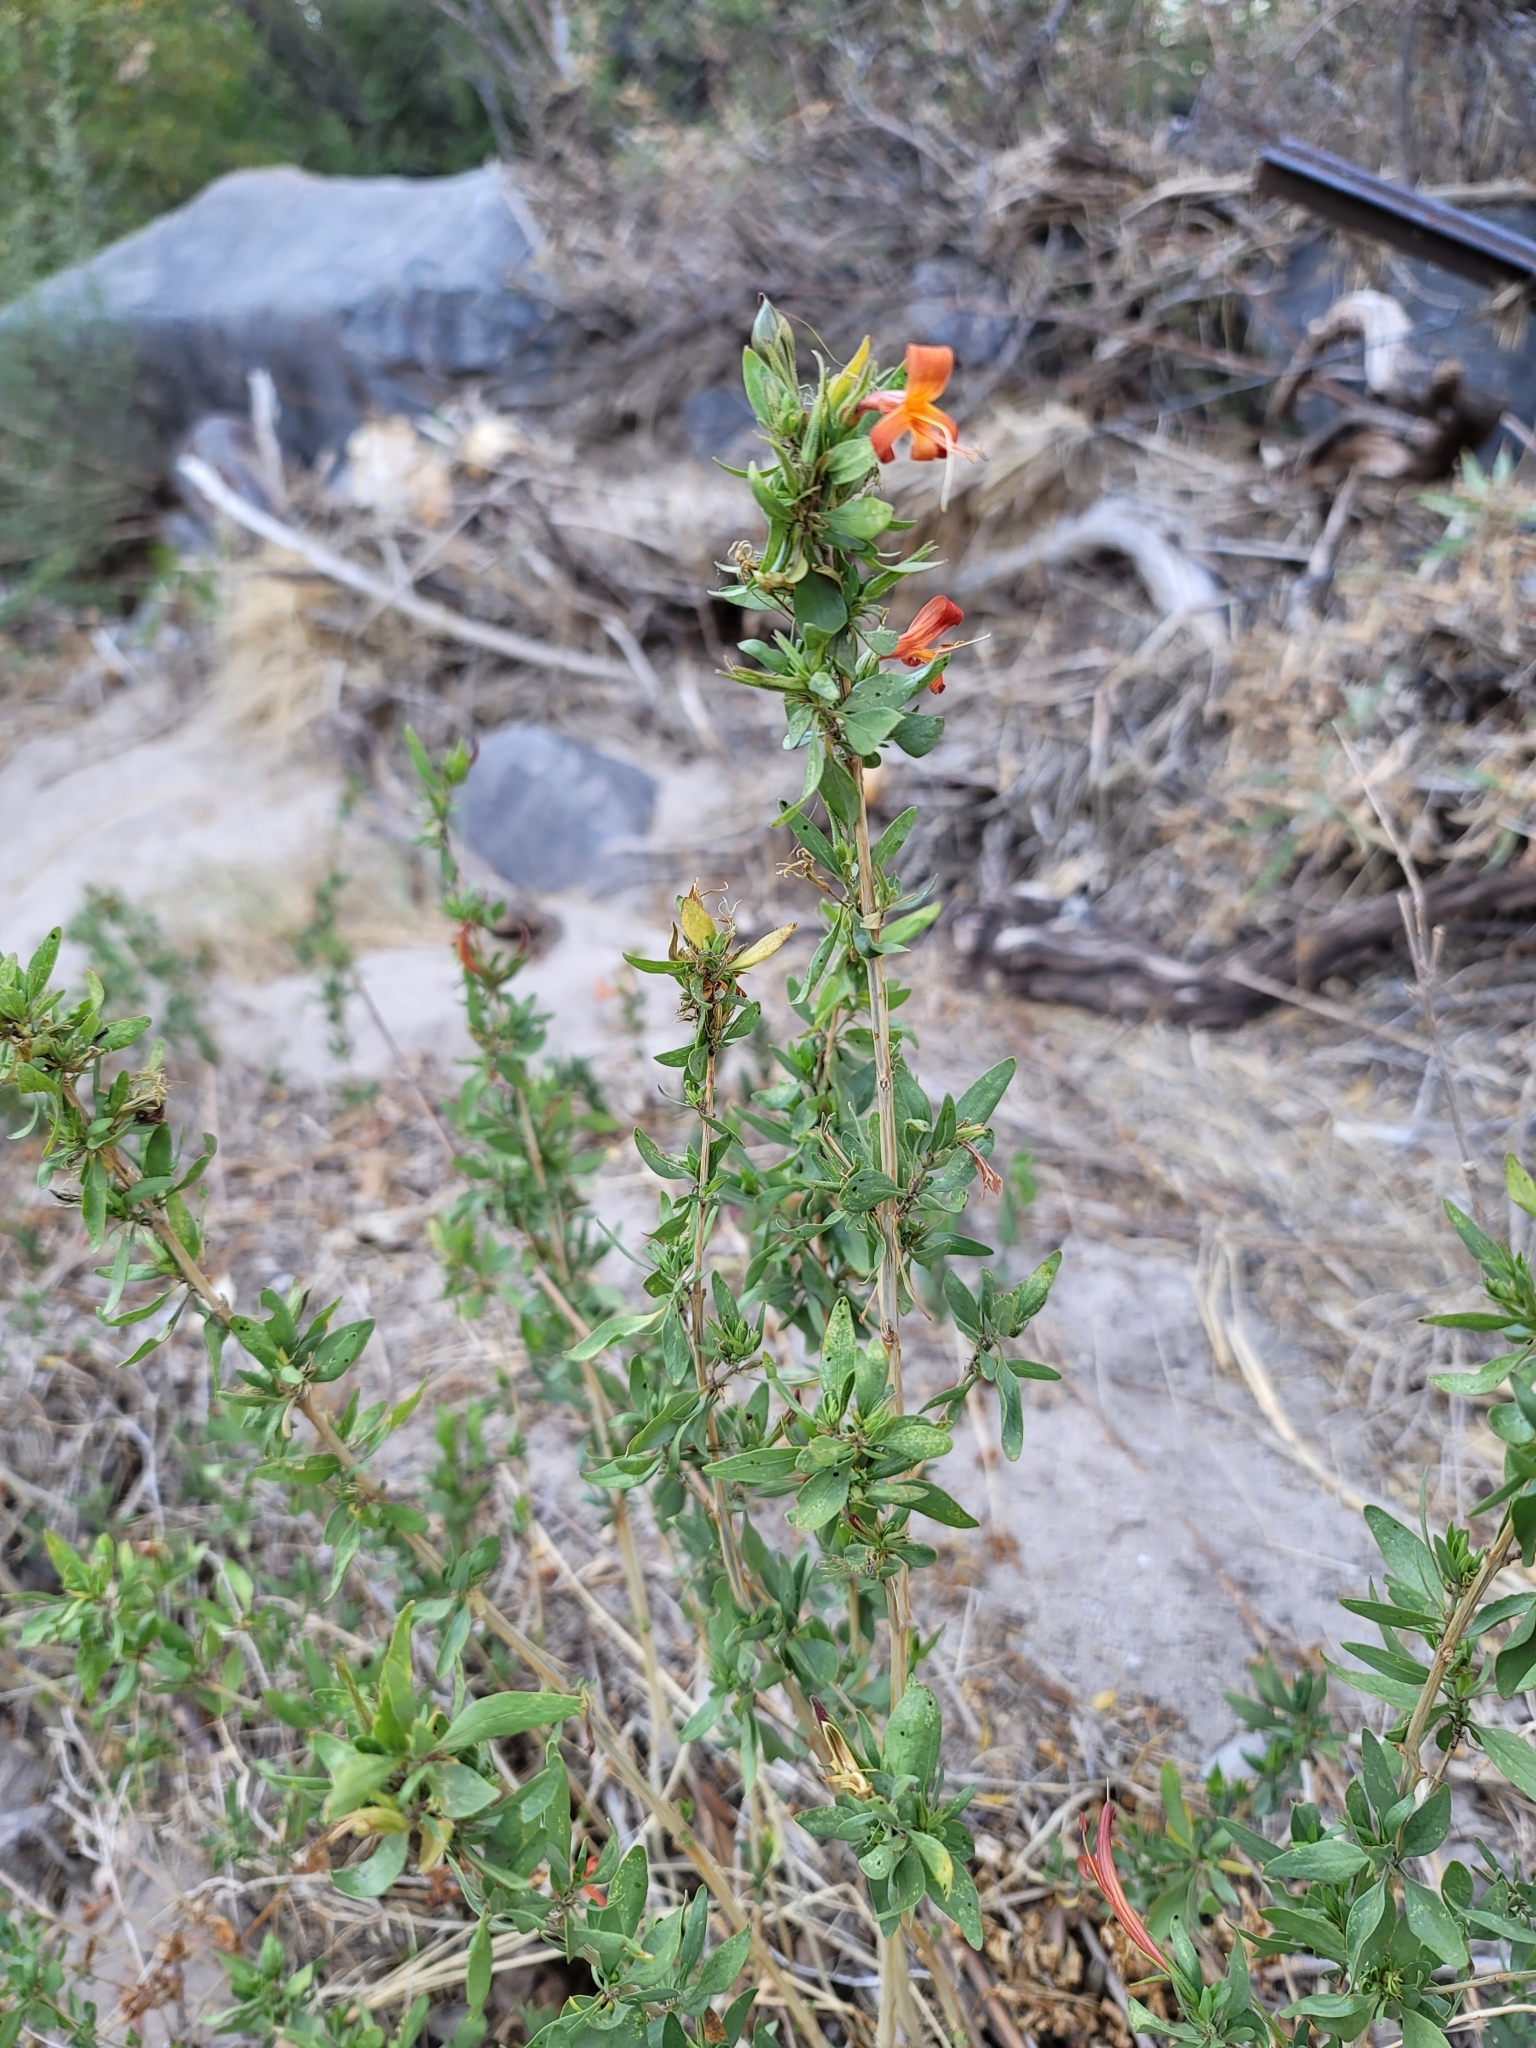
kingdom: Plantae
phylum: Tracheophyta
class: Magnoliopsida
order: Lamiales
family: Acanthaceae
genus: Anisacanthus
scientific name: Anisacanthus thurberi
